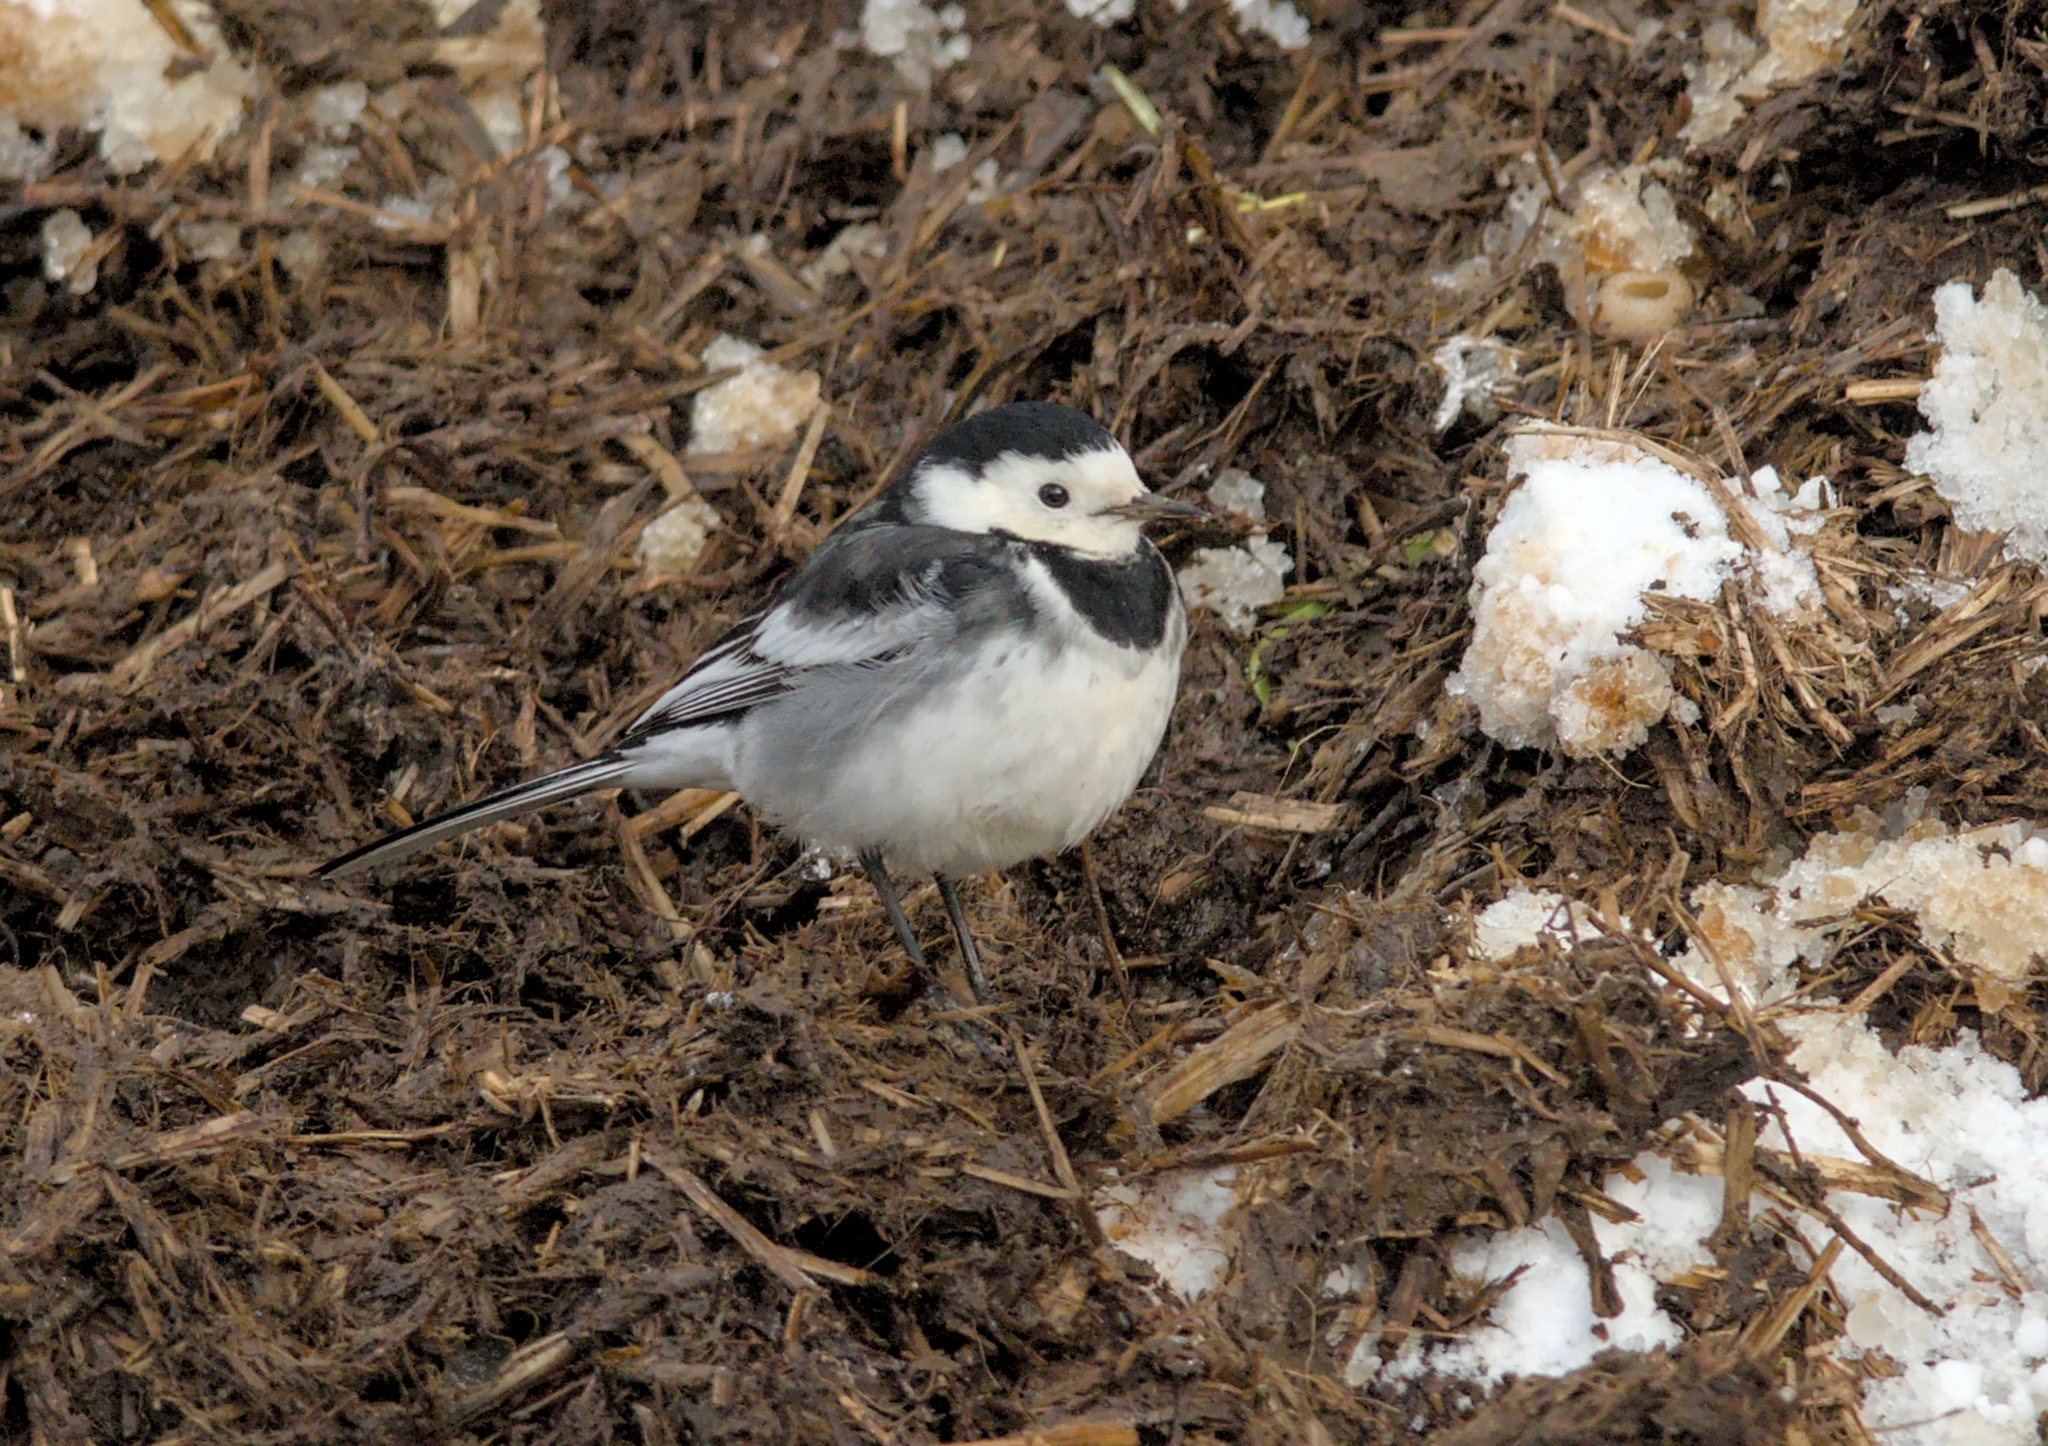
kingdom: Animalia
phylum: Chordata
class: Aves
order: Passeriformes
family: Motacillidae
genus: Motacilla
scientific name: Motacilla alba
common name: White wagtail
